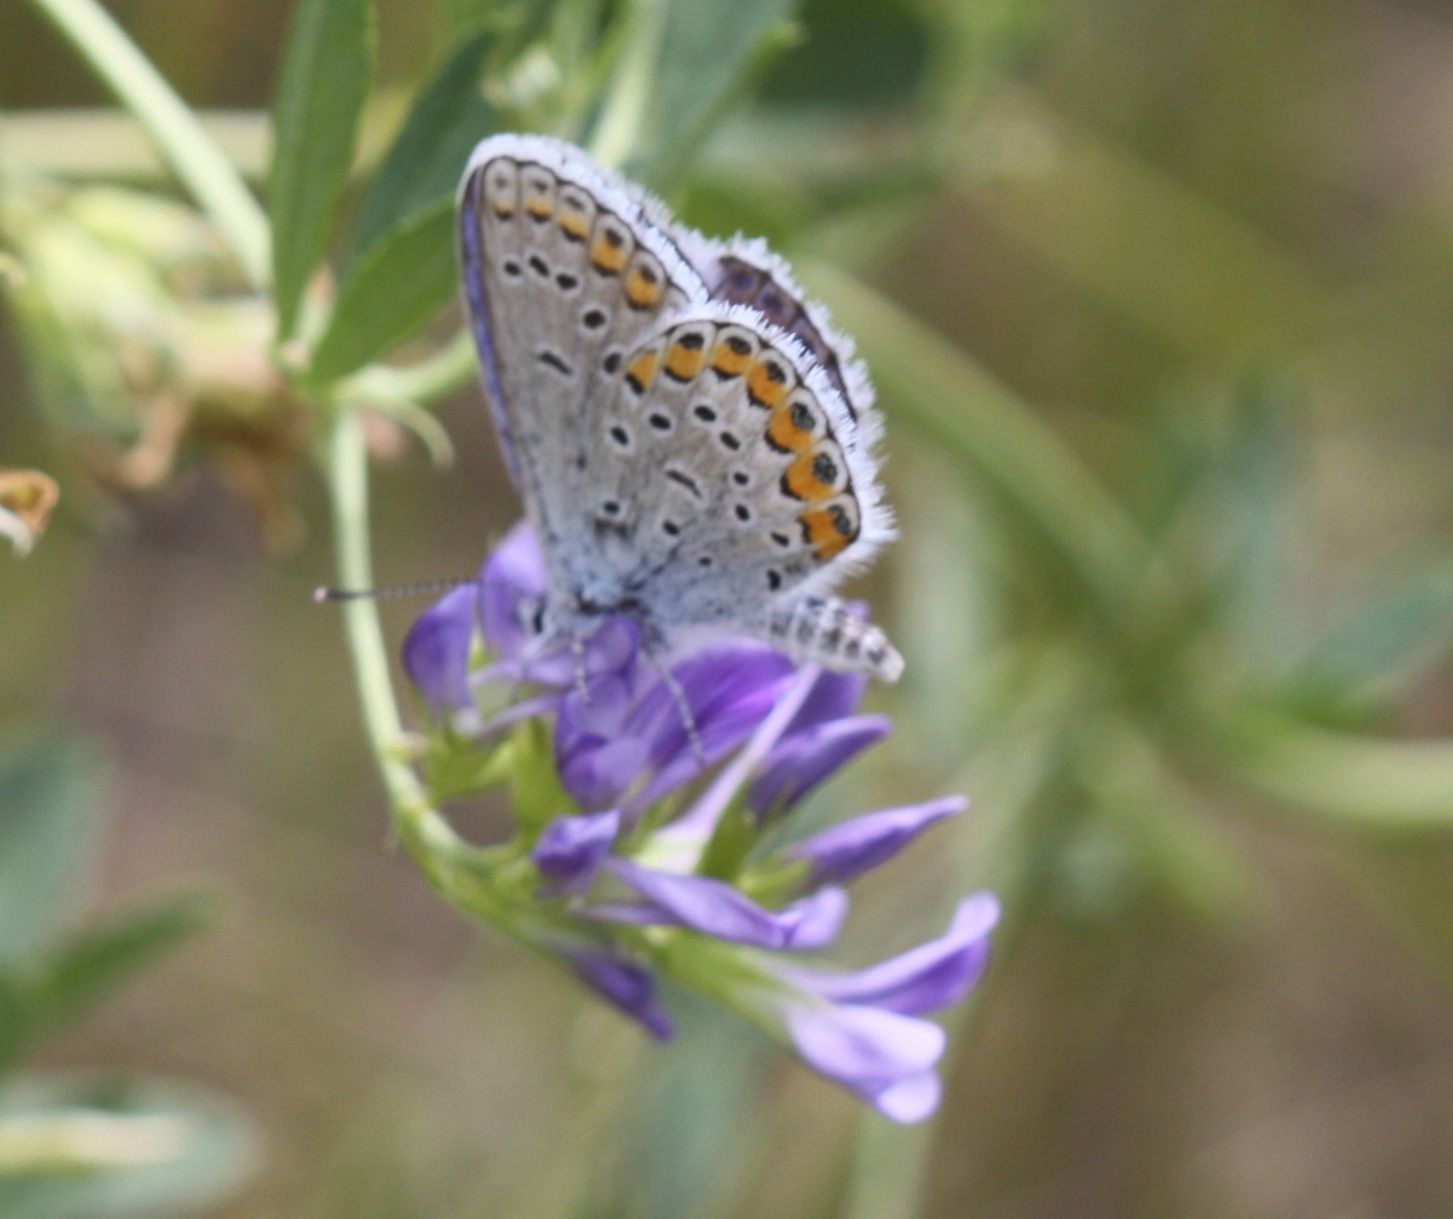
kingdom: Animalia
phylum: Arthropoda
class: Insecta
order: Lepidoptera
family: Lycaenidae
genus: Lycaeides
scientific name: Lycaeides melissa
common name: Melissa blue
